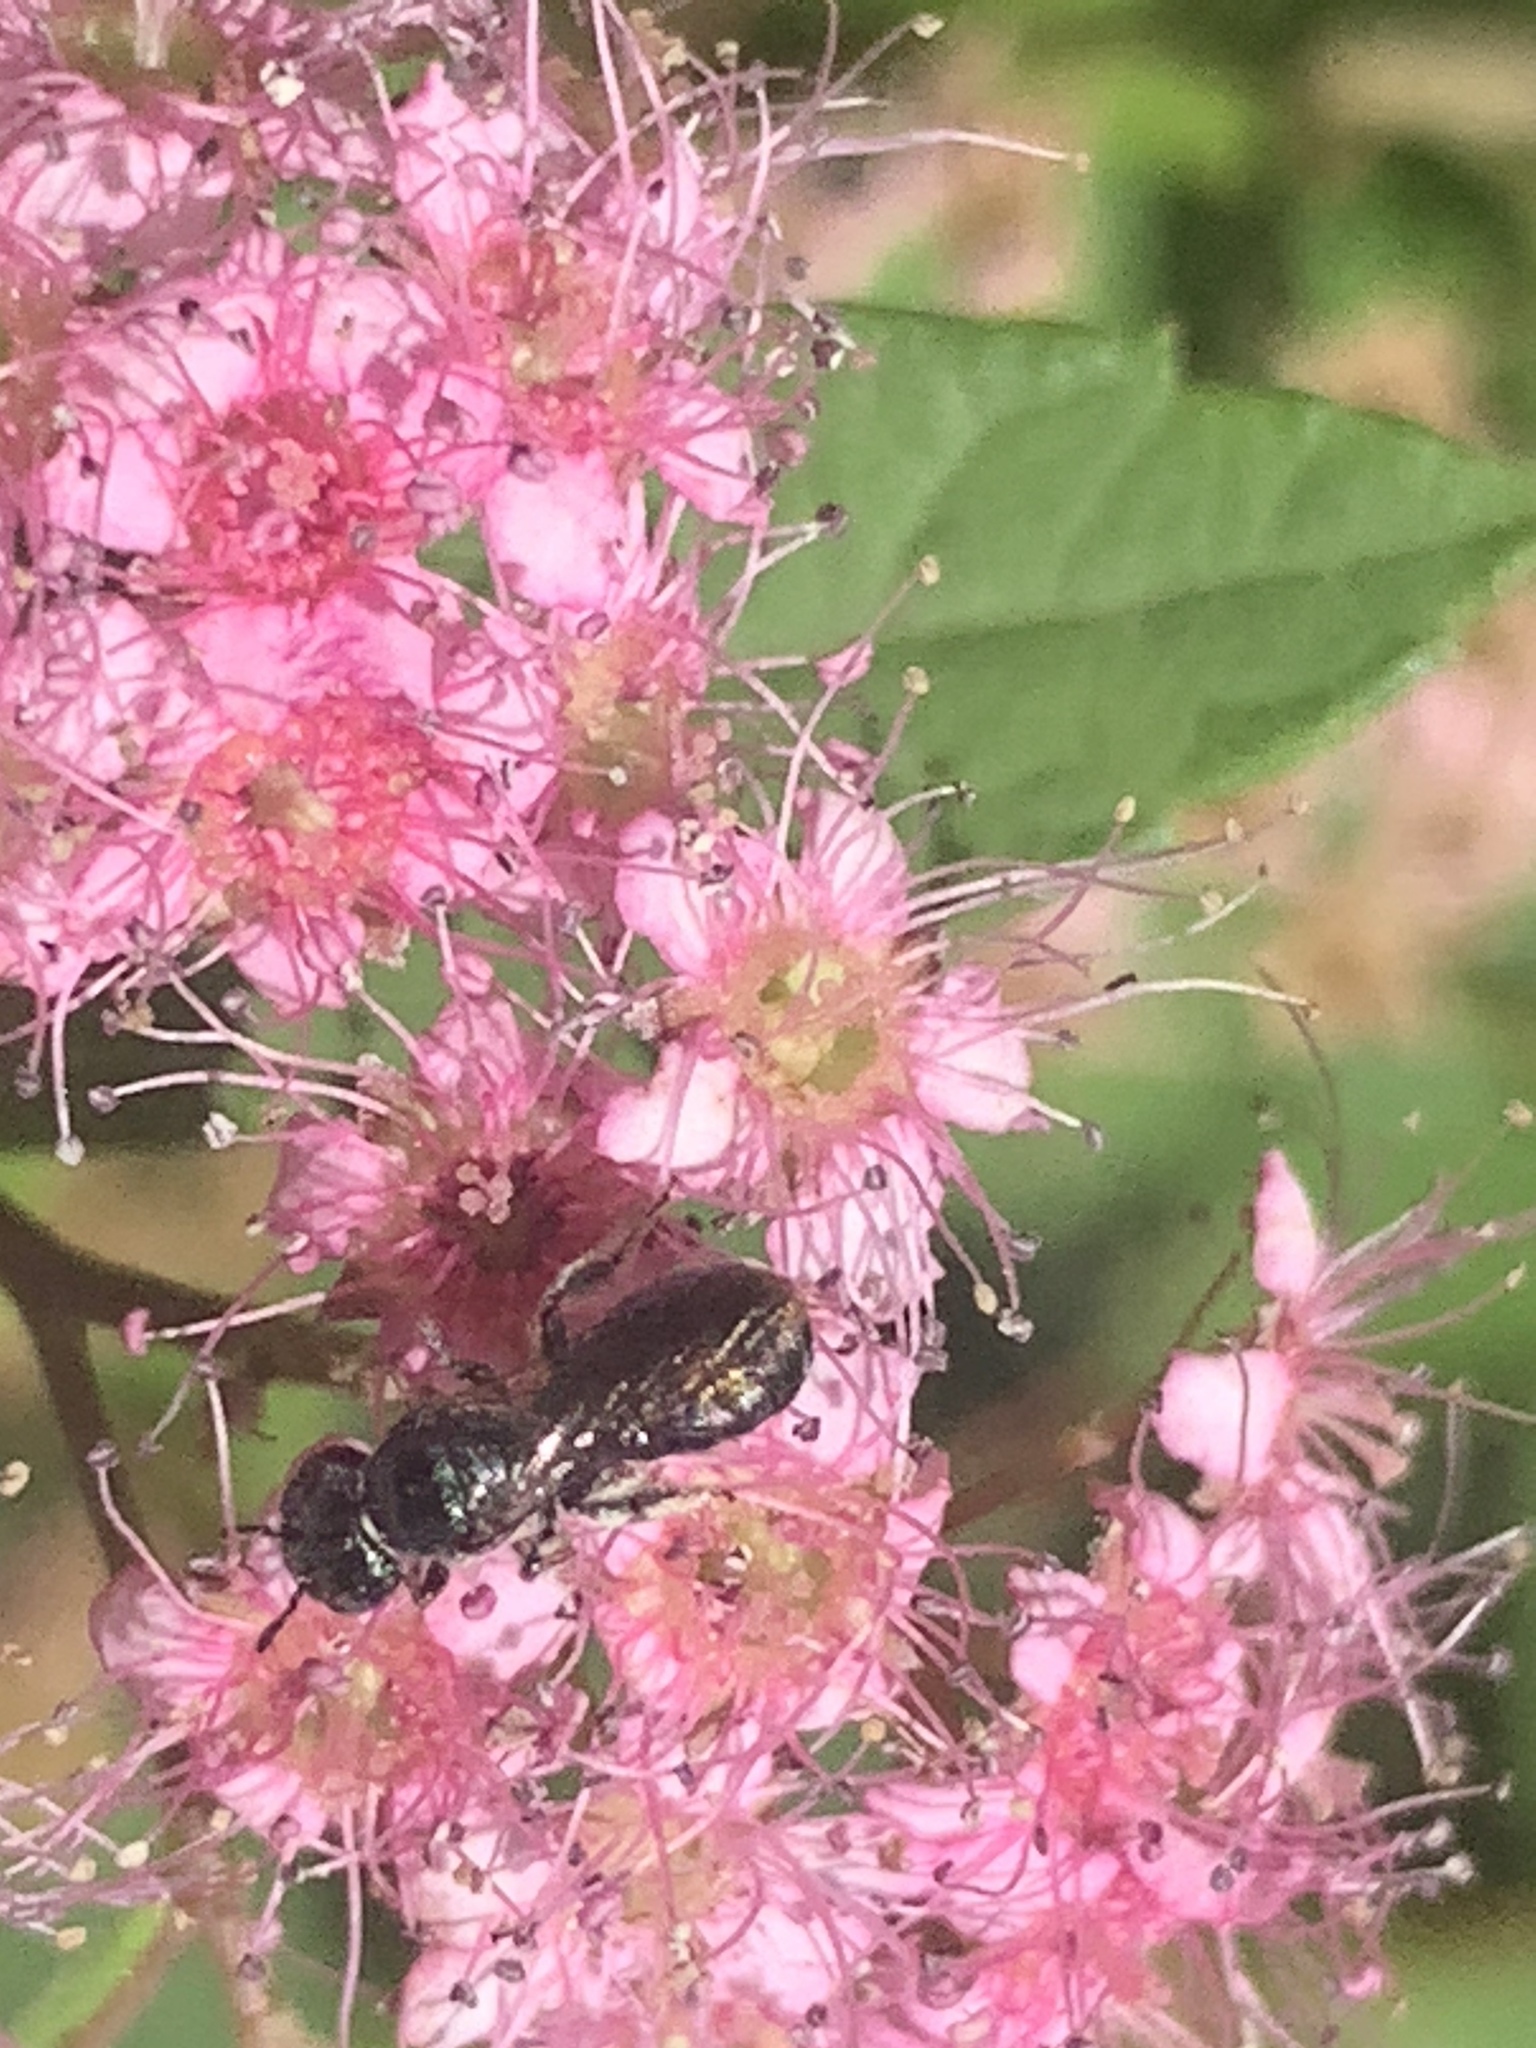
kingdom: Animalia
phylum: Arthropoda
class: Insecta
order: Hymenoptera
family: Apidae
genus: Zadontomerus
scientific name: Zadontomerus
